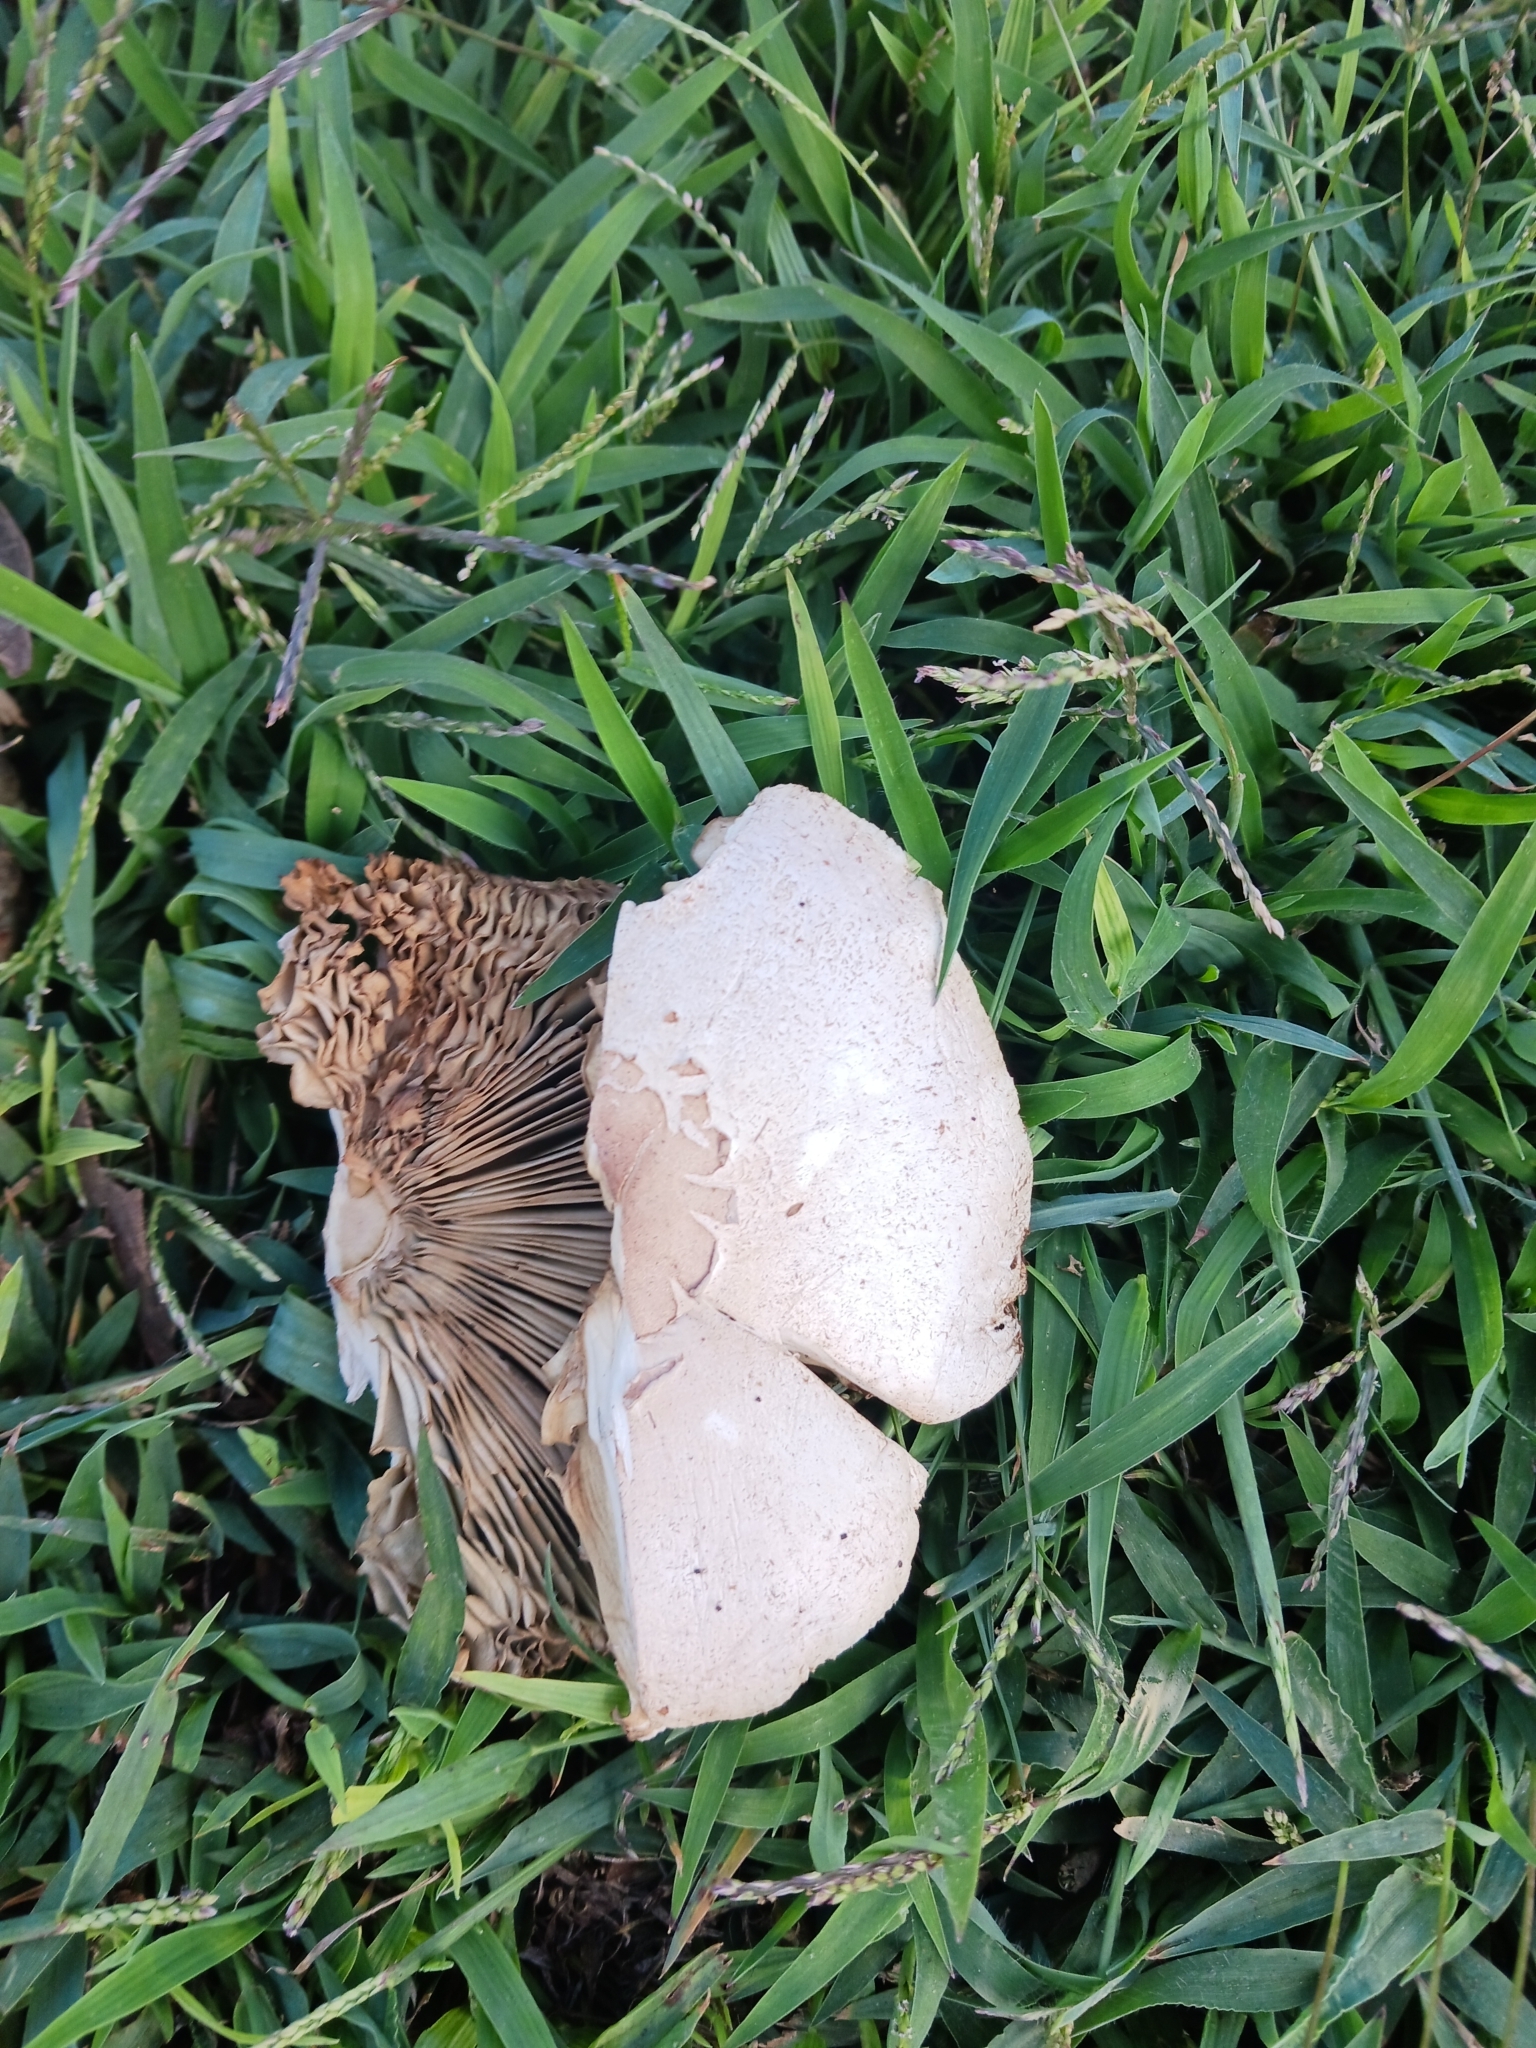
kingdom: Fungi
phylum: Basidiomycota
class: Agaricomycetes
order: Agaricales
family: Agaricaceae
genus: Chlorophyllum
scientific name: Chlorophyllum molybdites
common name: False parasol
